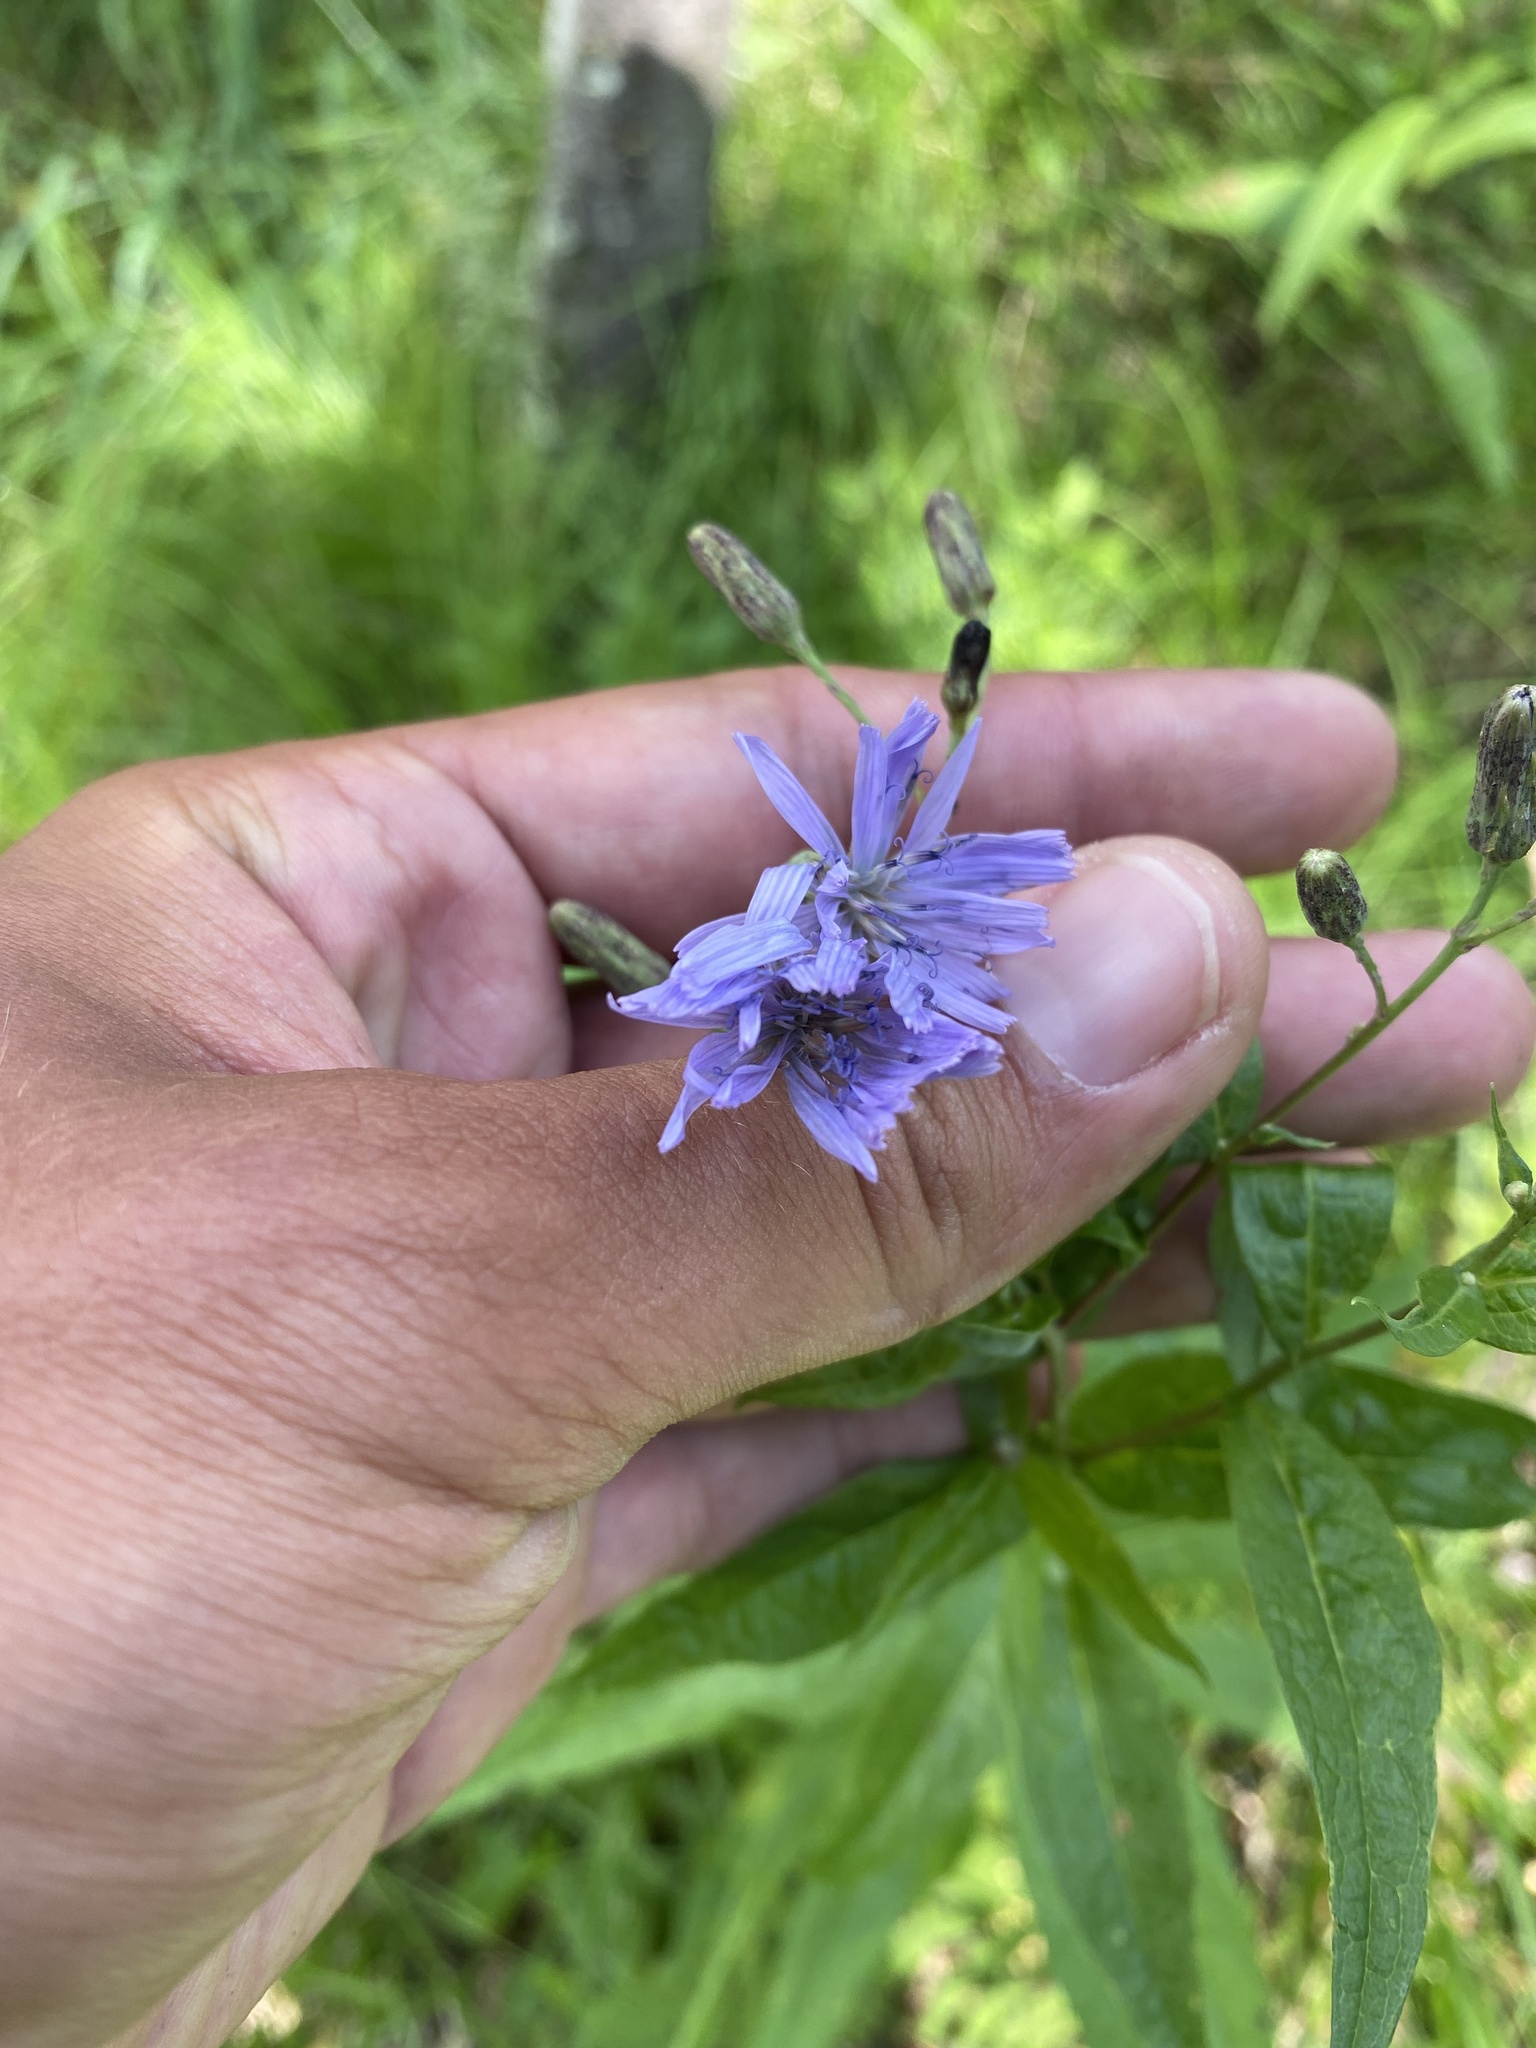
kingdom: Plantae
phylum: Tracheophyta
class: Magnoliopsida
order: Asterales
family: Asteraceae
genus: Lactuca
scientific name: Lactuca sibirica
